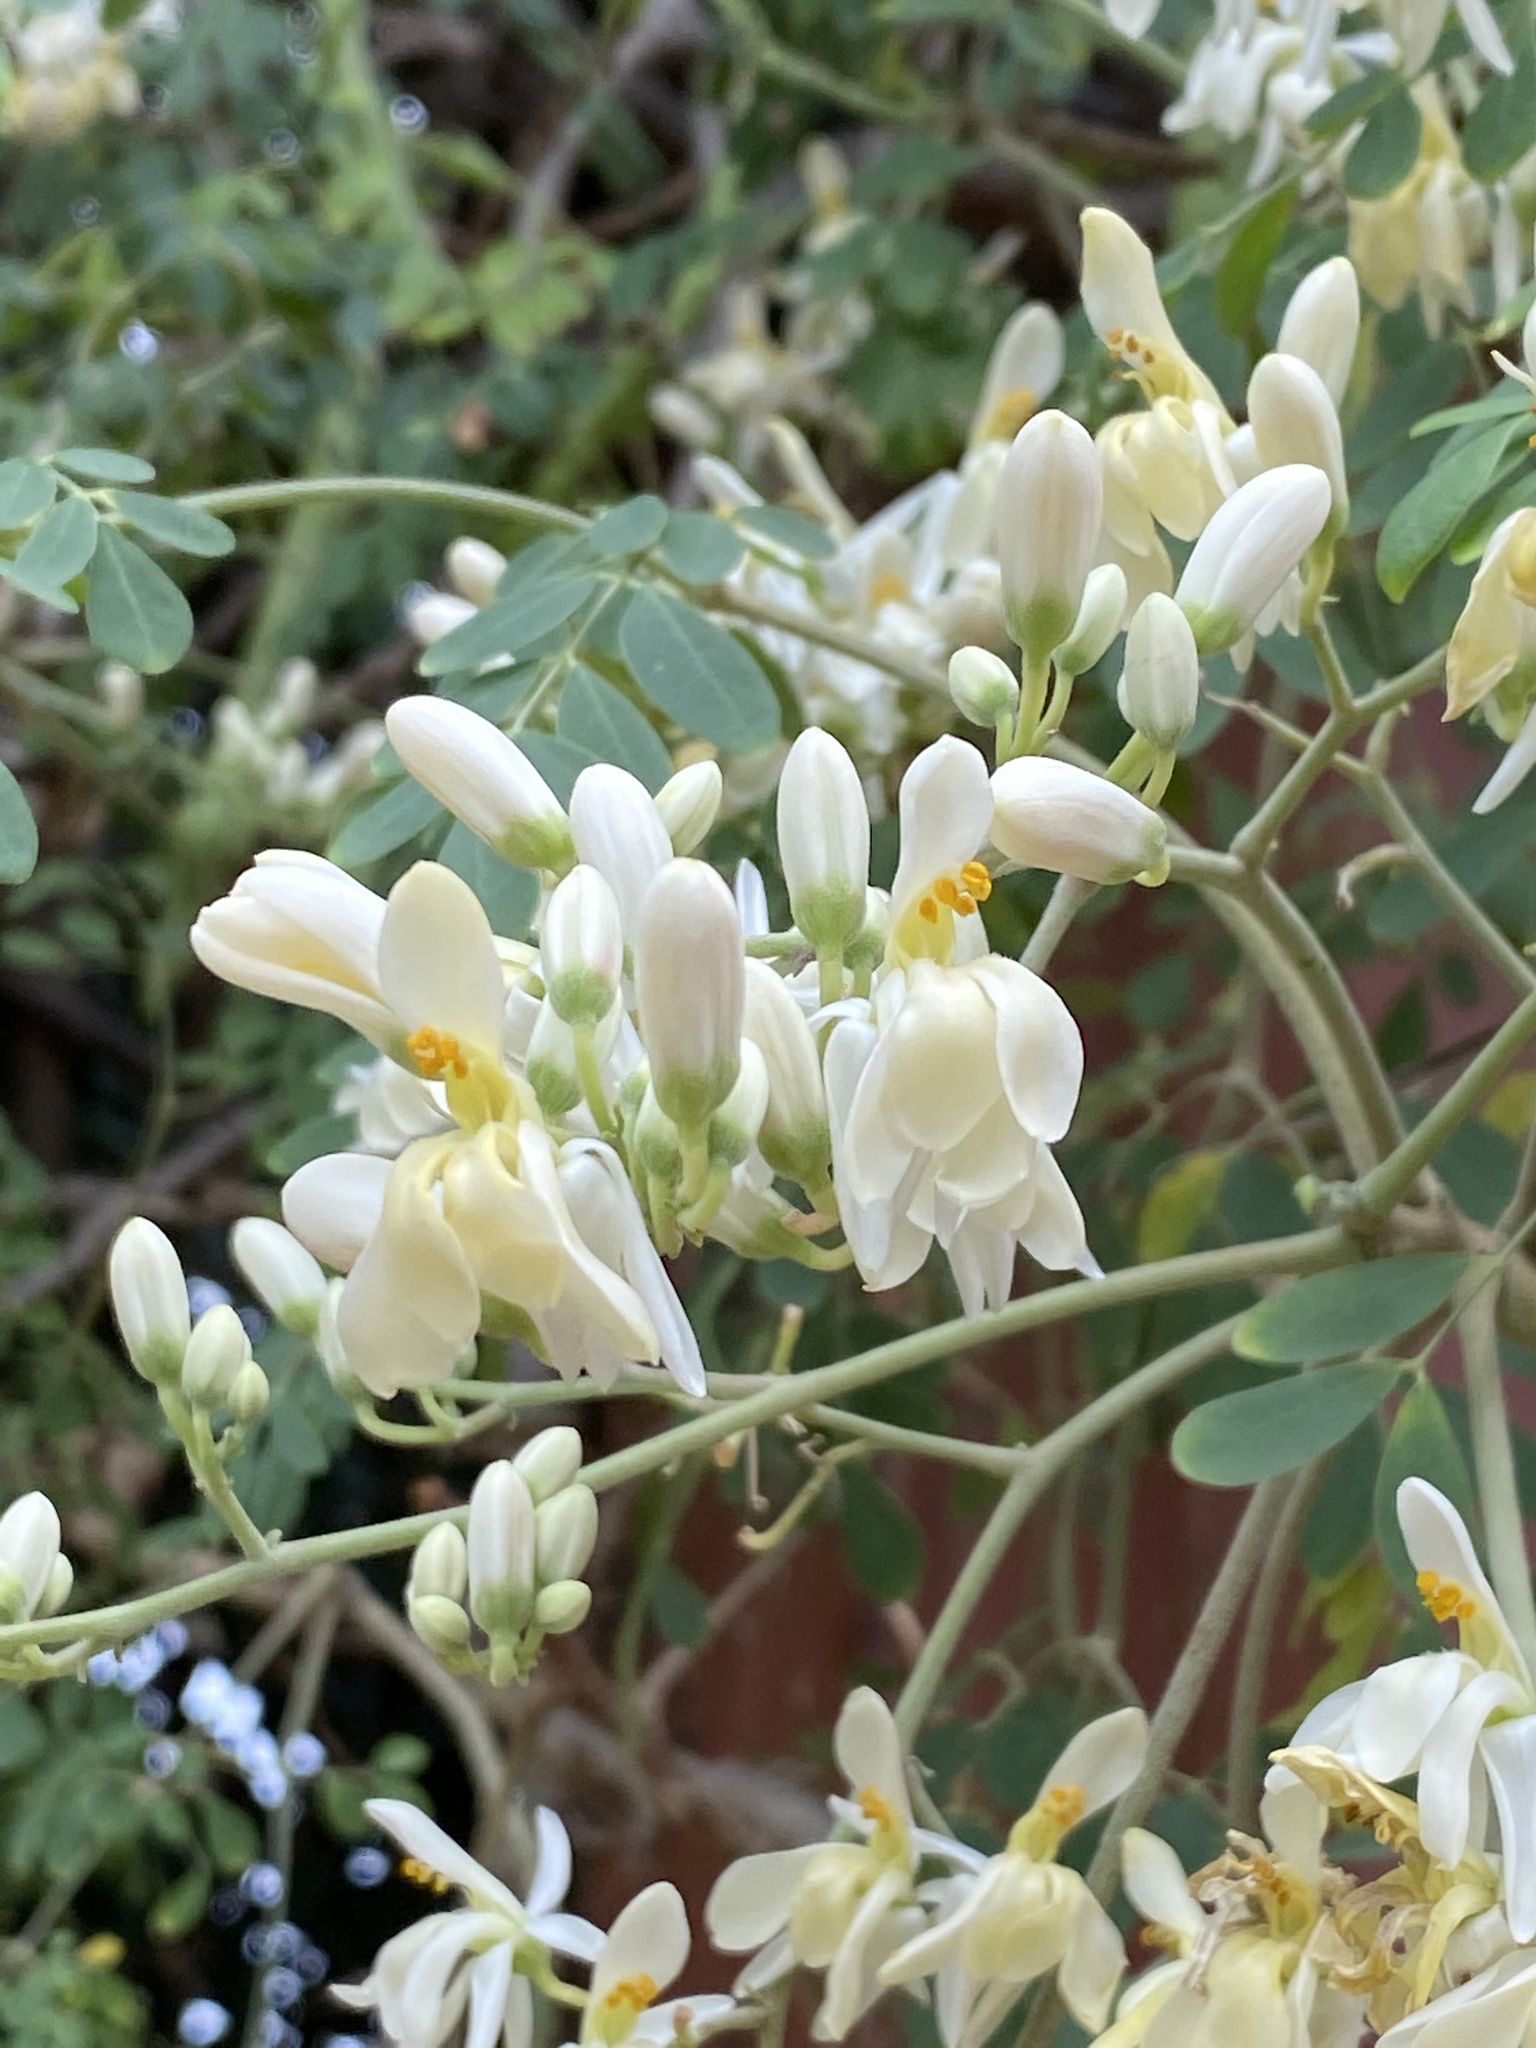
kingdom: Plantae
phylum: Tracheophyta
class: Magnoliopsida
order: Brassicales
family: Moringaceae
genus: Moringa
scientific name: Moringa oleifera
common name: Horseradish-tree
